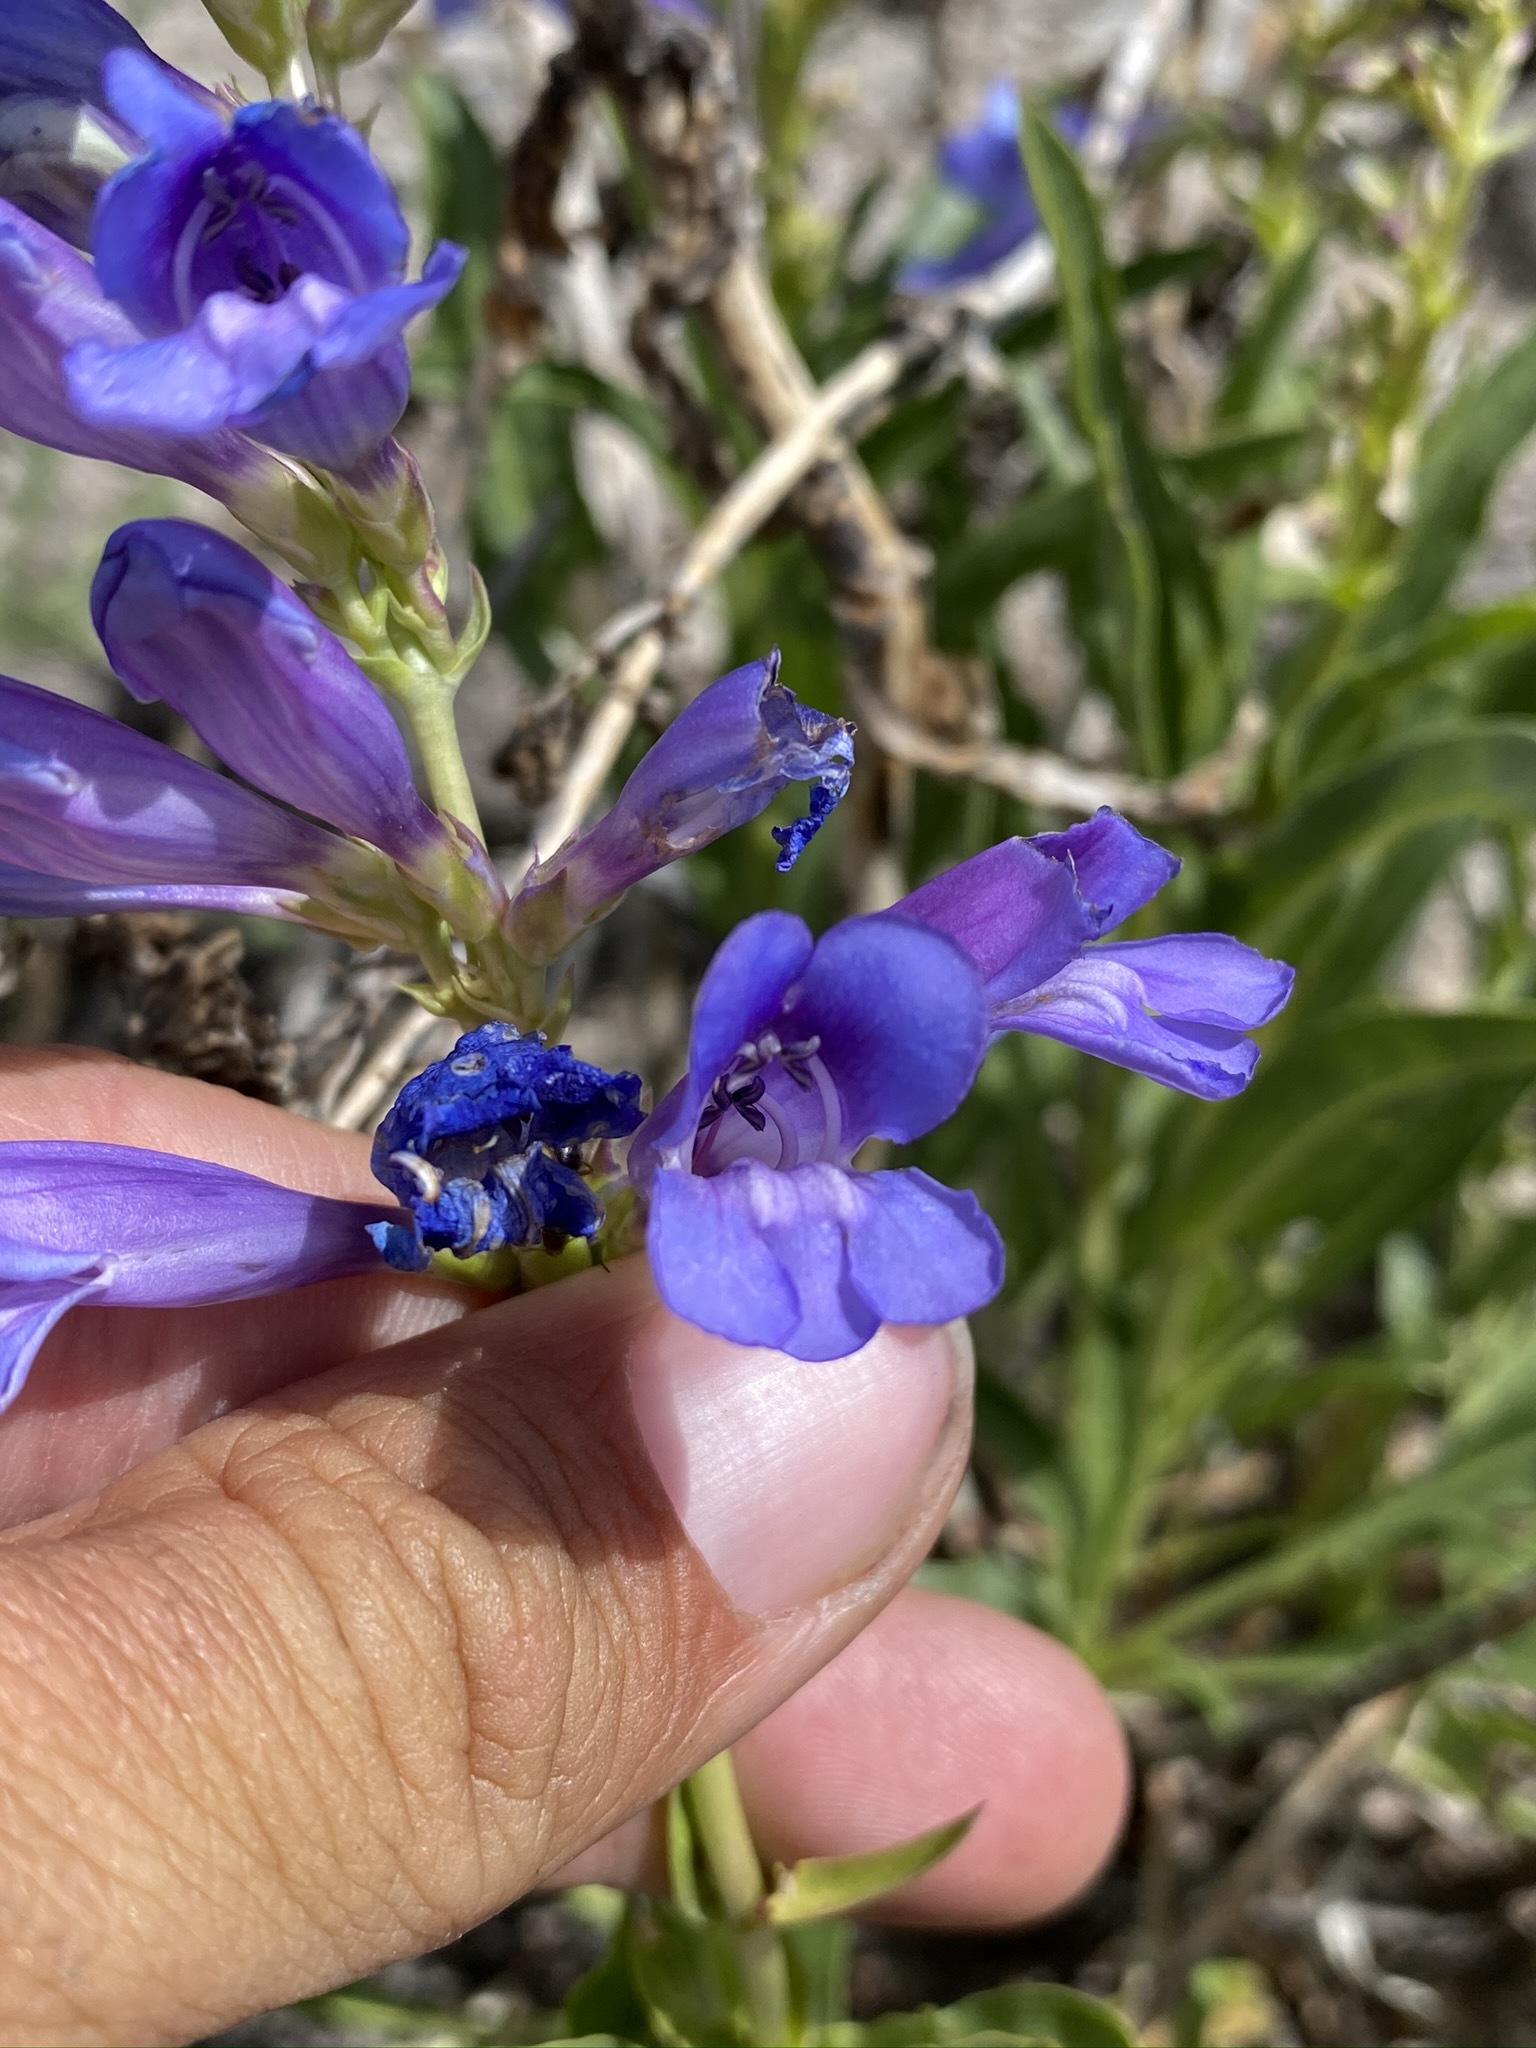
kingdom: Plantae
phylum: Tracheophyta
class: Magnoliopsida
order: Lamiales
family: Plantaginaceae
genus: Penstemon
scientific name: Penstemon speciosus
